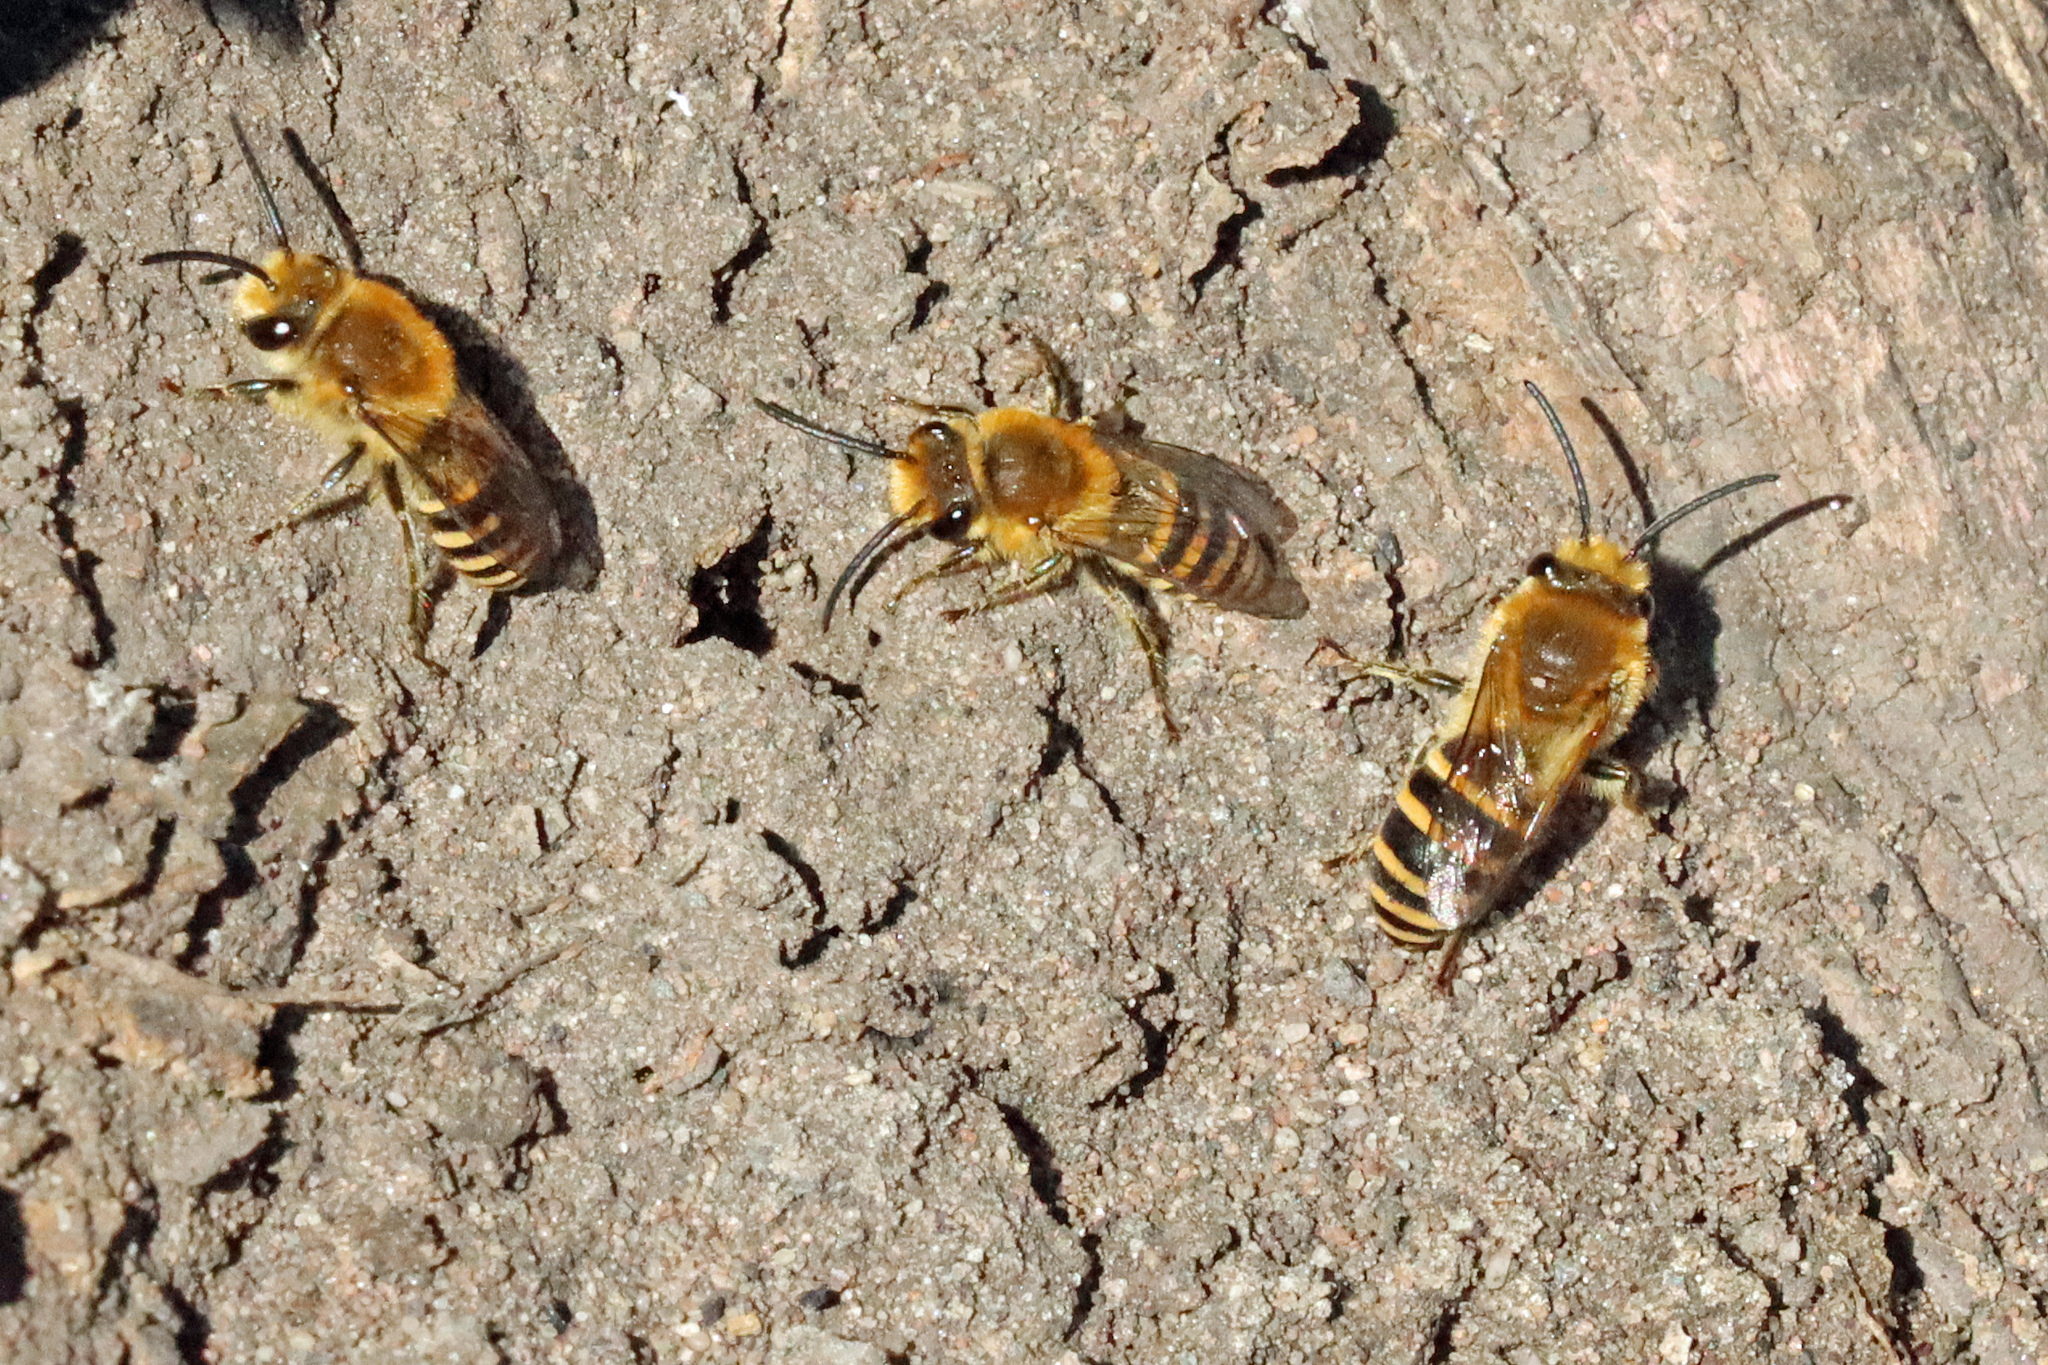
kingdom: Animalia
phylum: Arthropoda
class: Insecta
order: Hymenoptera
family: Colletidae
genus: Colletes
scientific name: Colletes hederae
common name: Ivy bee
